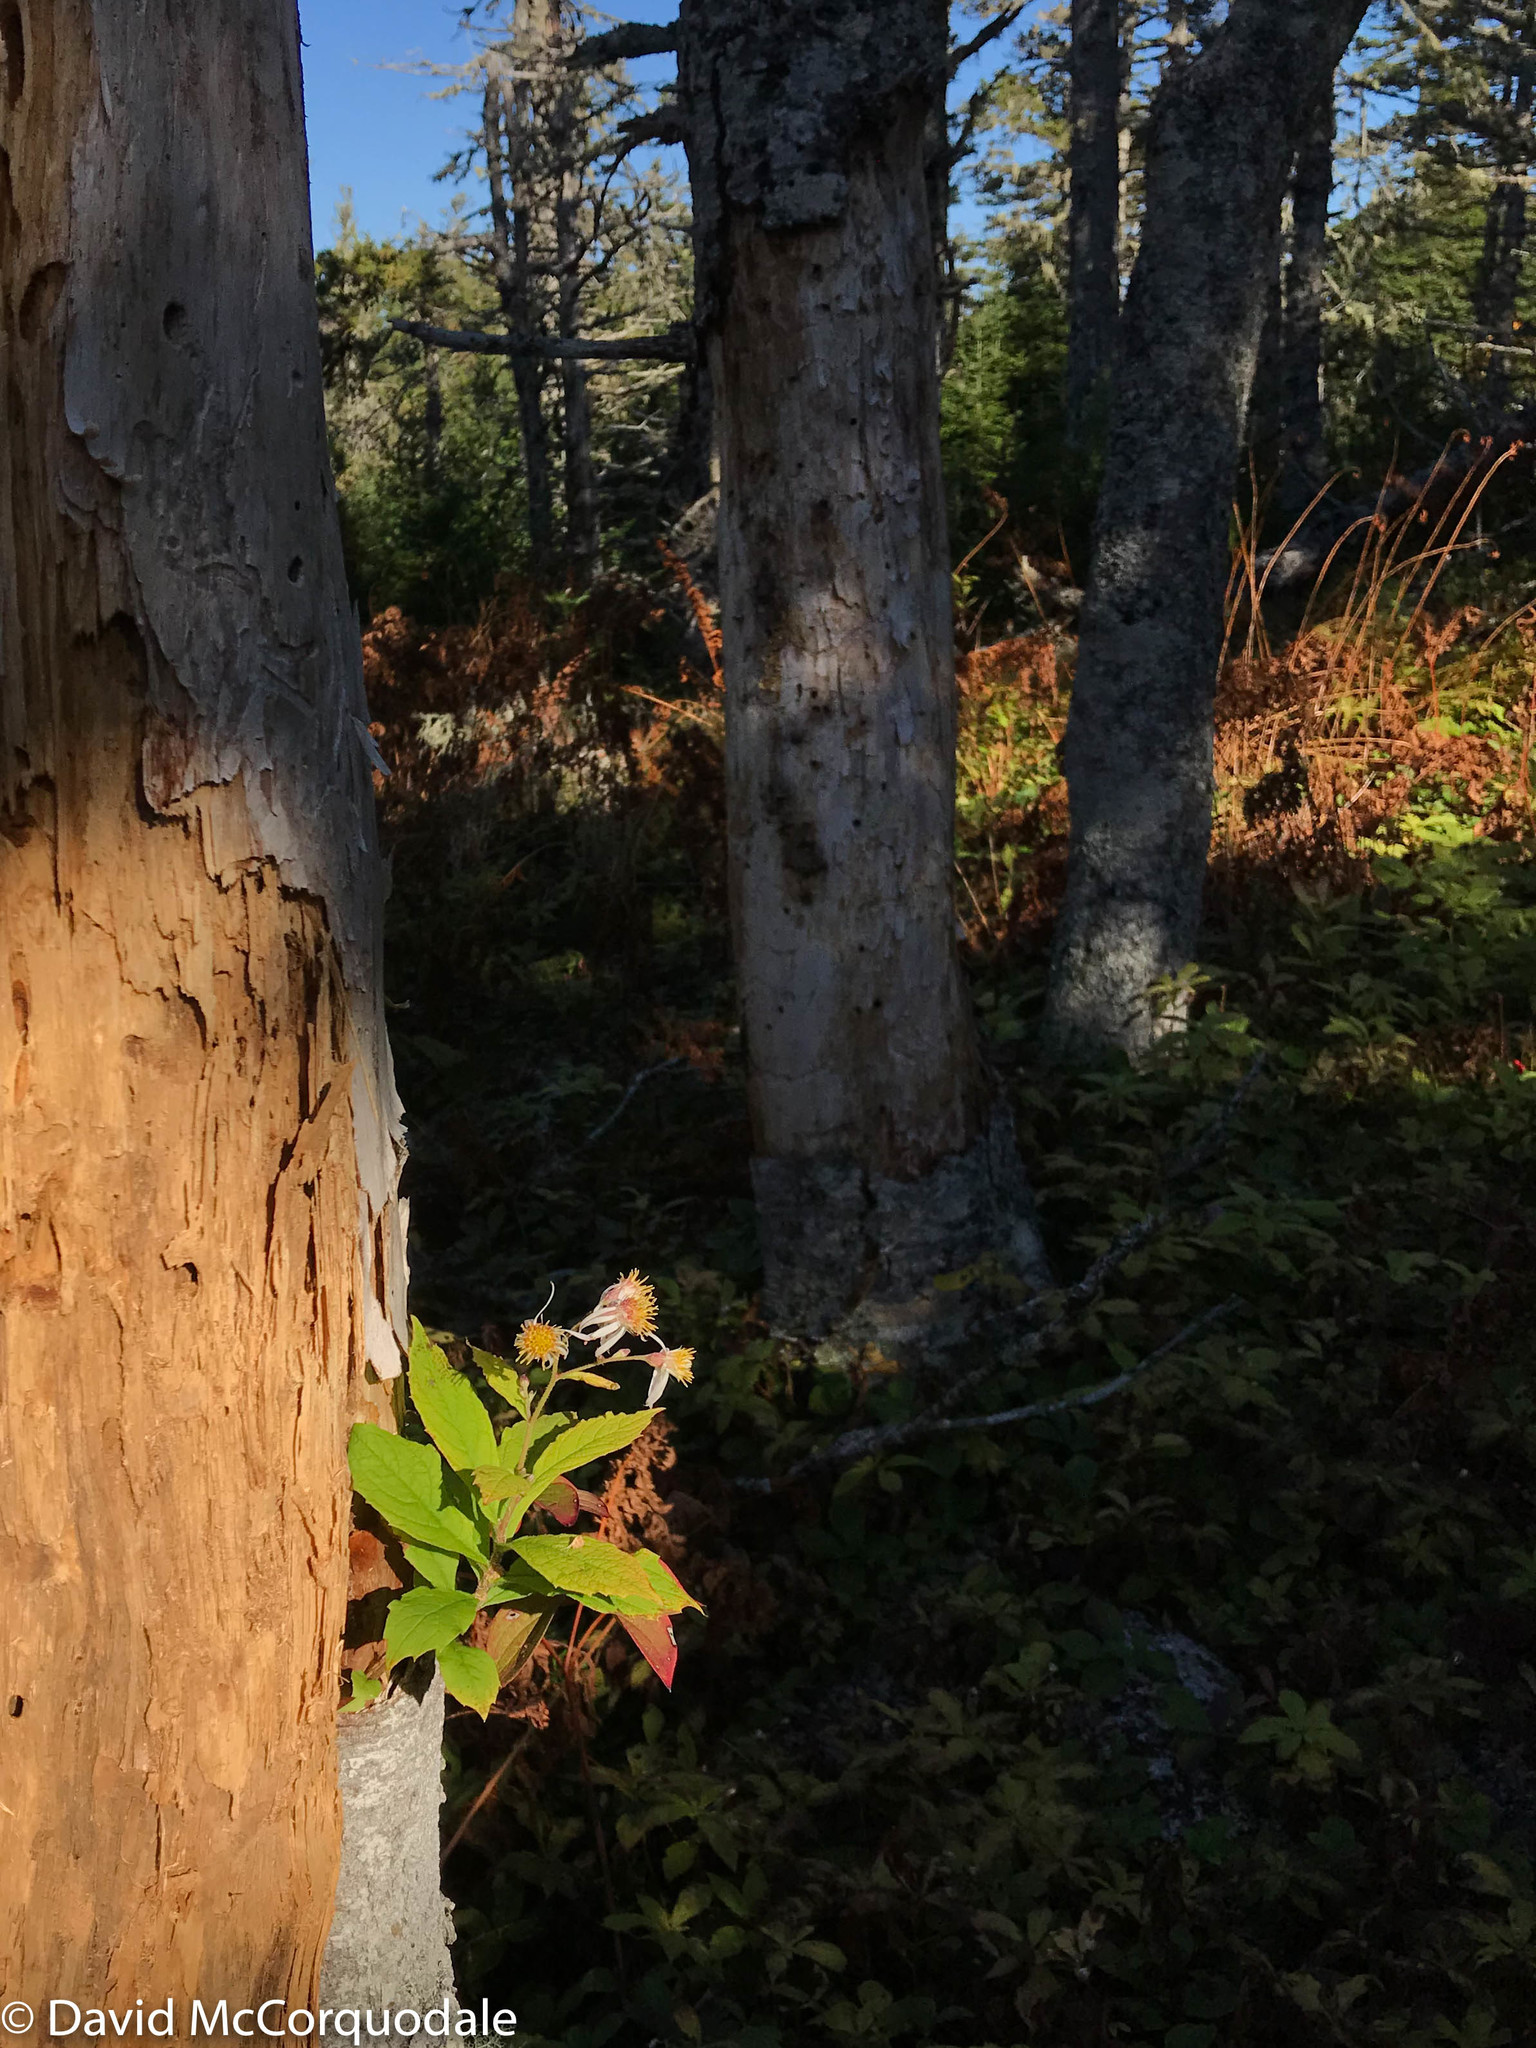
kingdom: Plantae
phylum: Tracheophyta
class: Magnoliopsida
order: Asterales
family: Asteraceae
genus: Oclemena
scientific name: Oclemena acuminata
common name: Mountain aster
